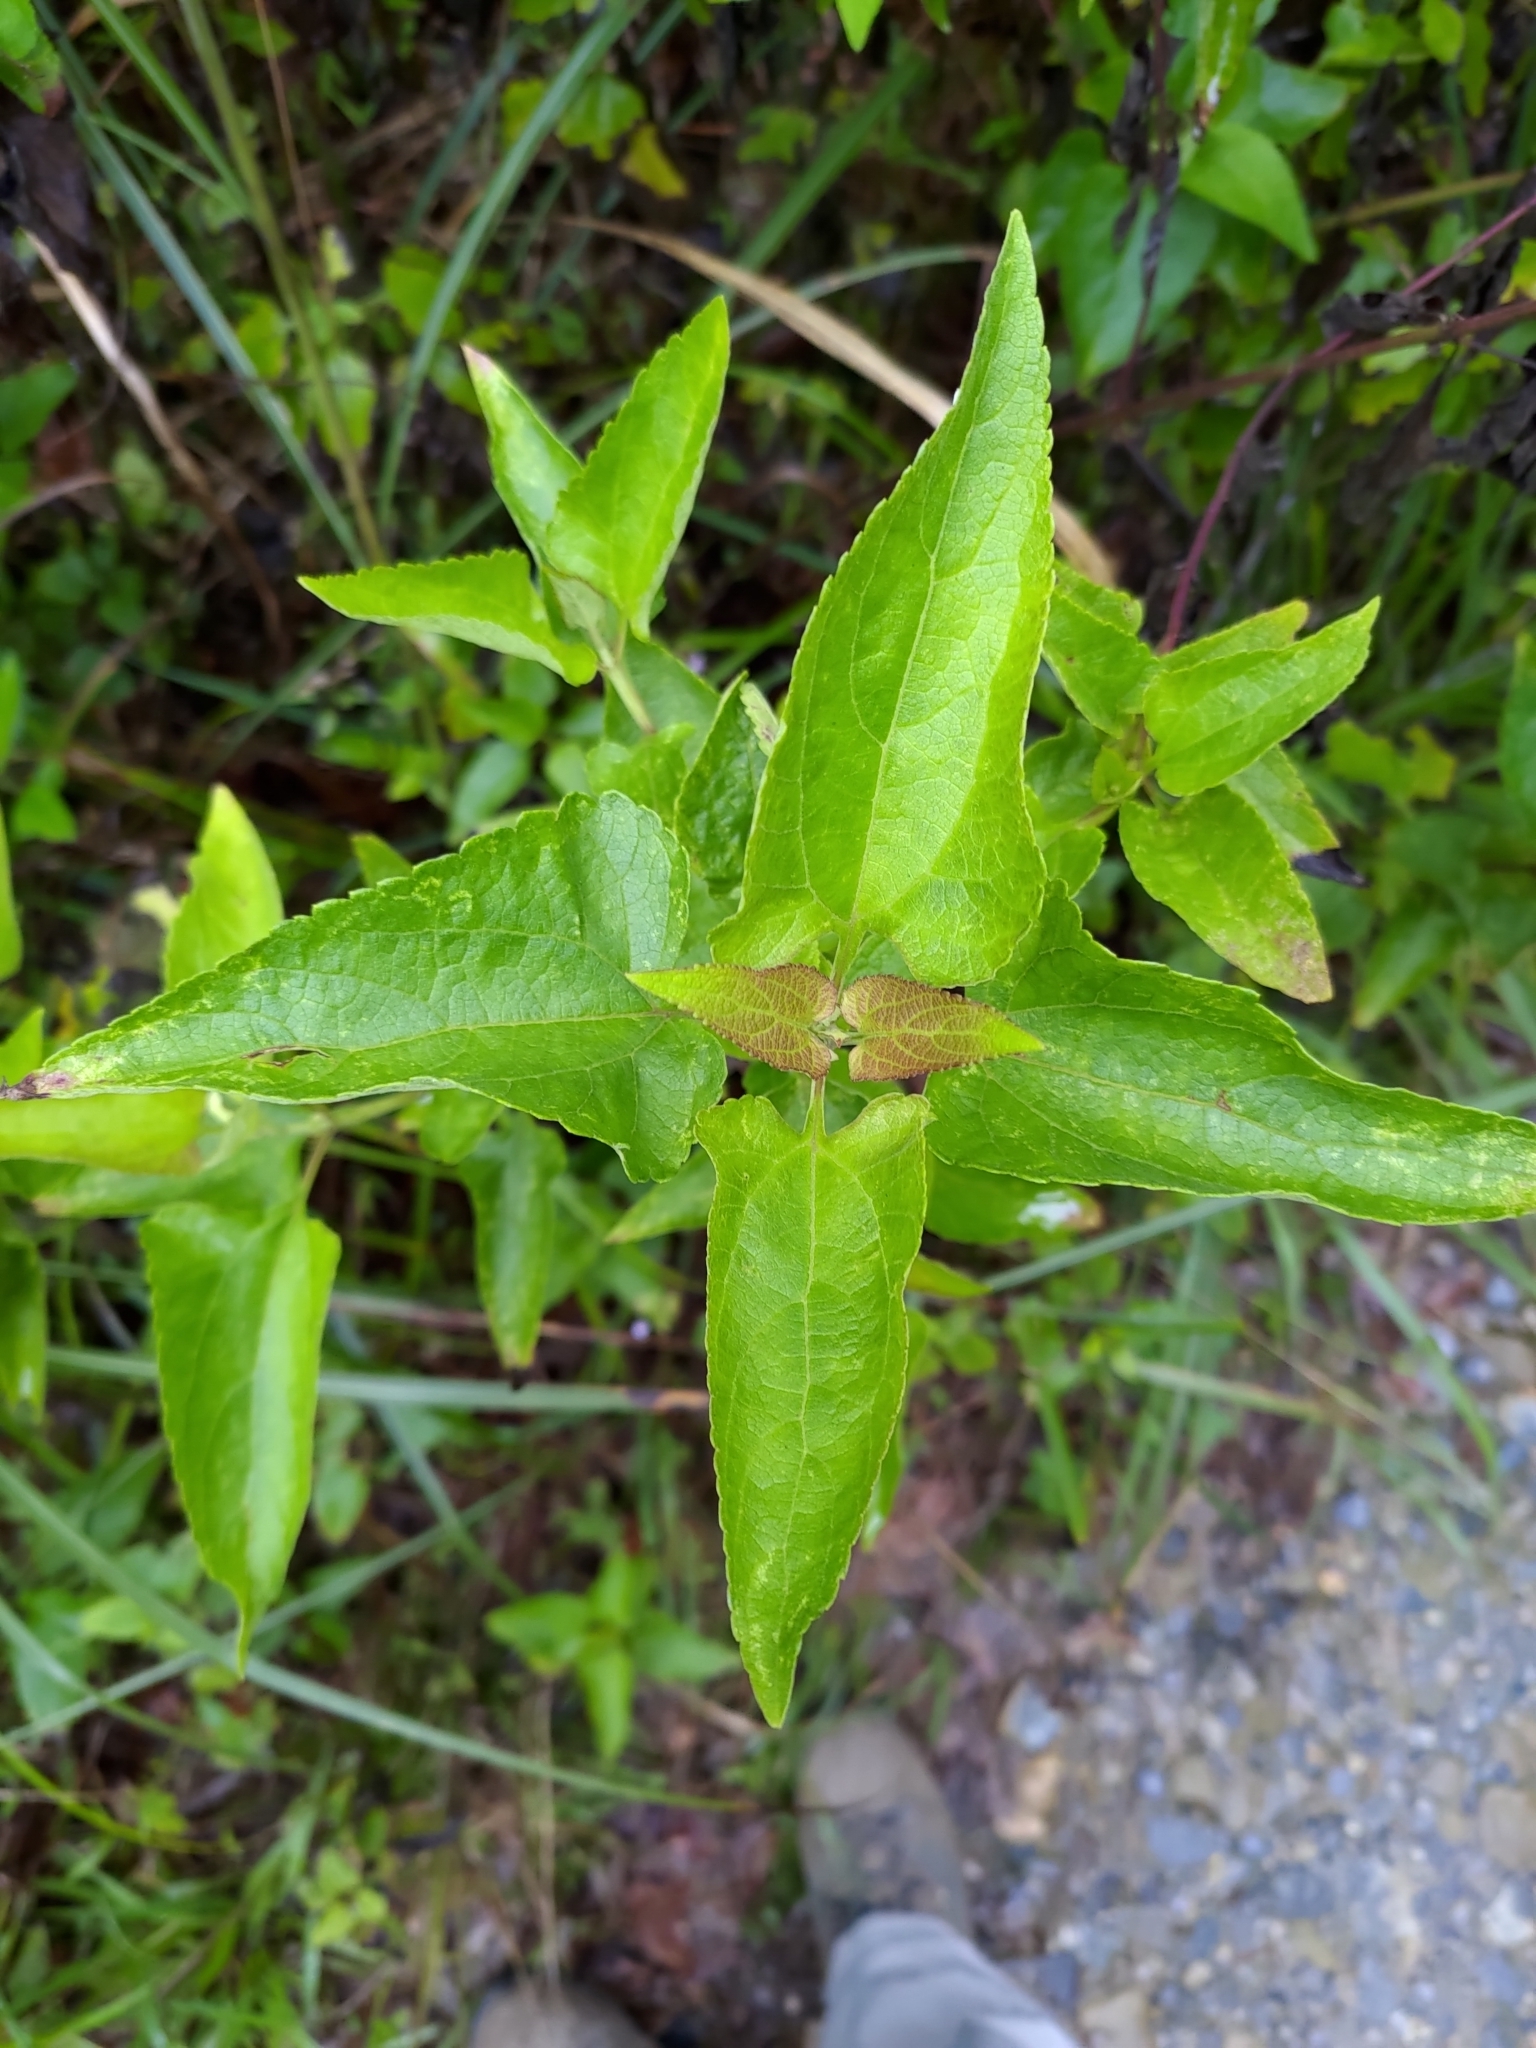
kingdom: Plantae
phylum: Tracheophyta
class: Magnoliopsida
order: Asterales
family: Asteraceae
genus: Austroeupatorium
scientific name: Austroeupatorium inulifolium
